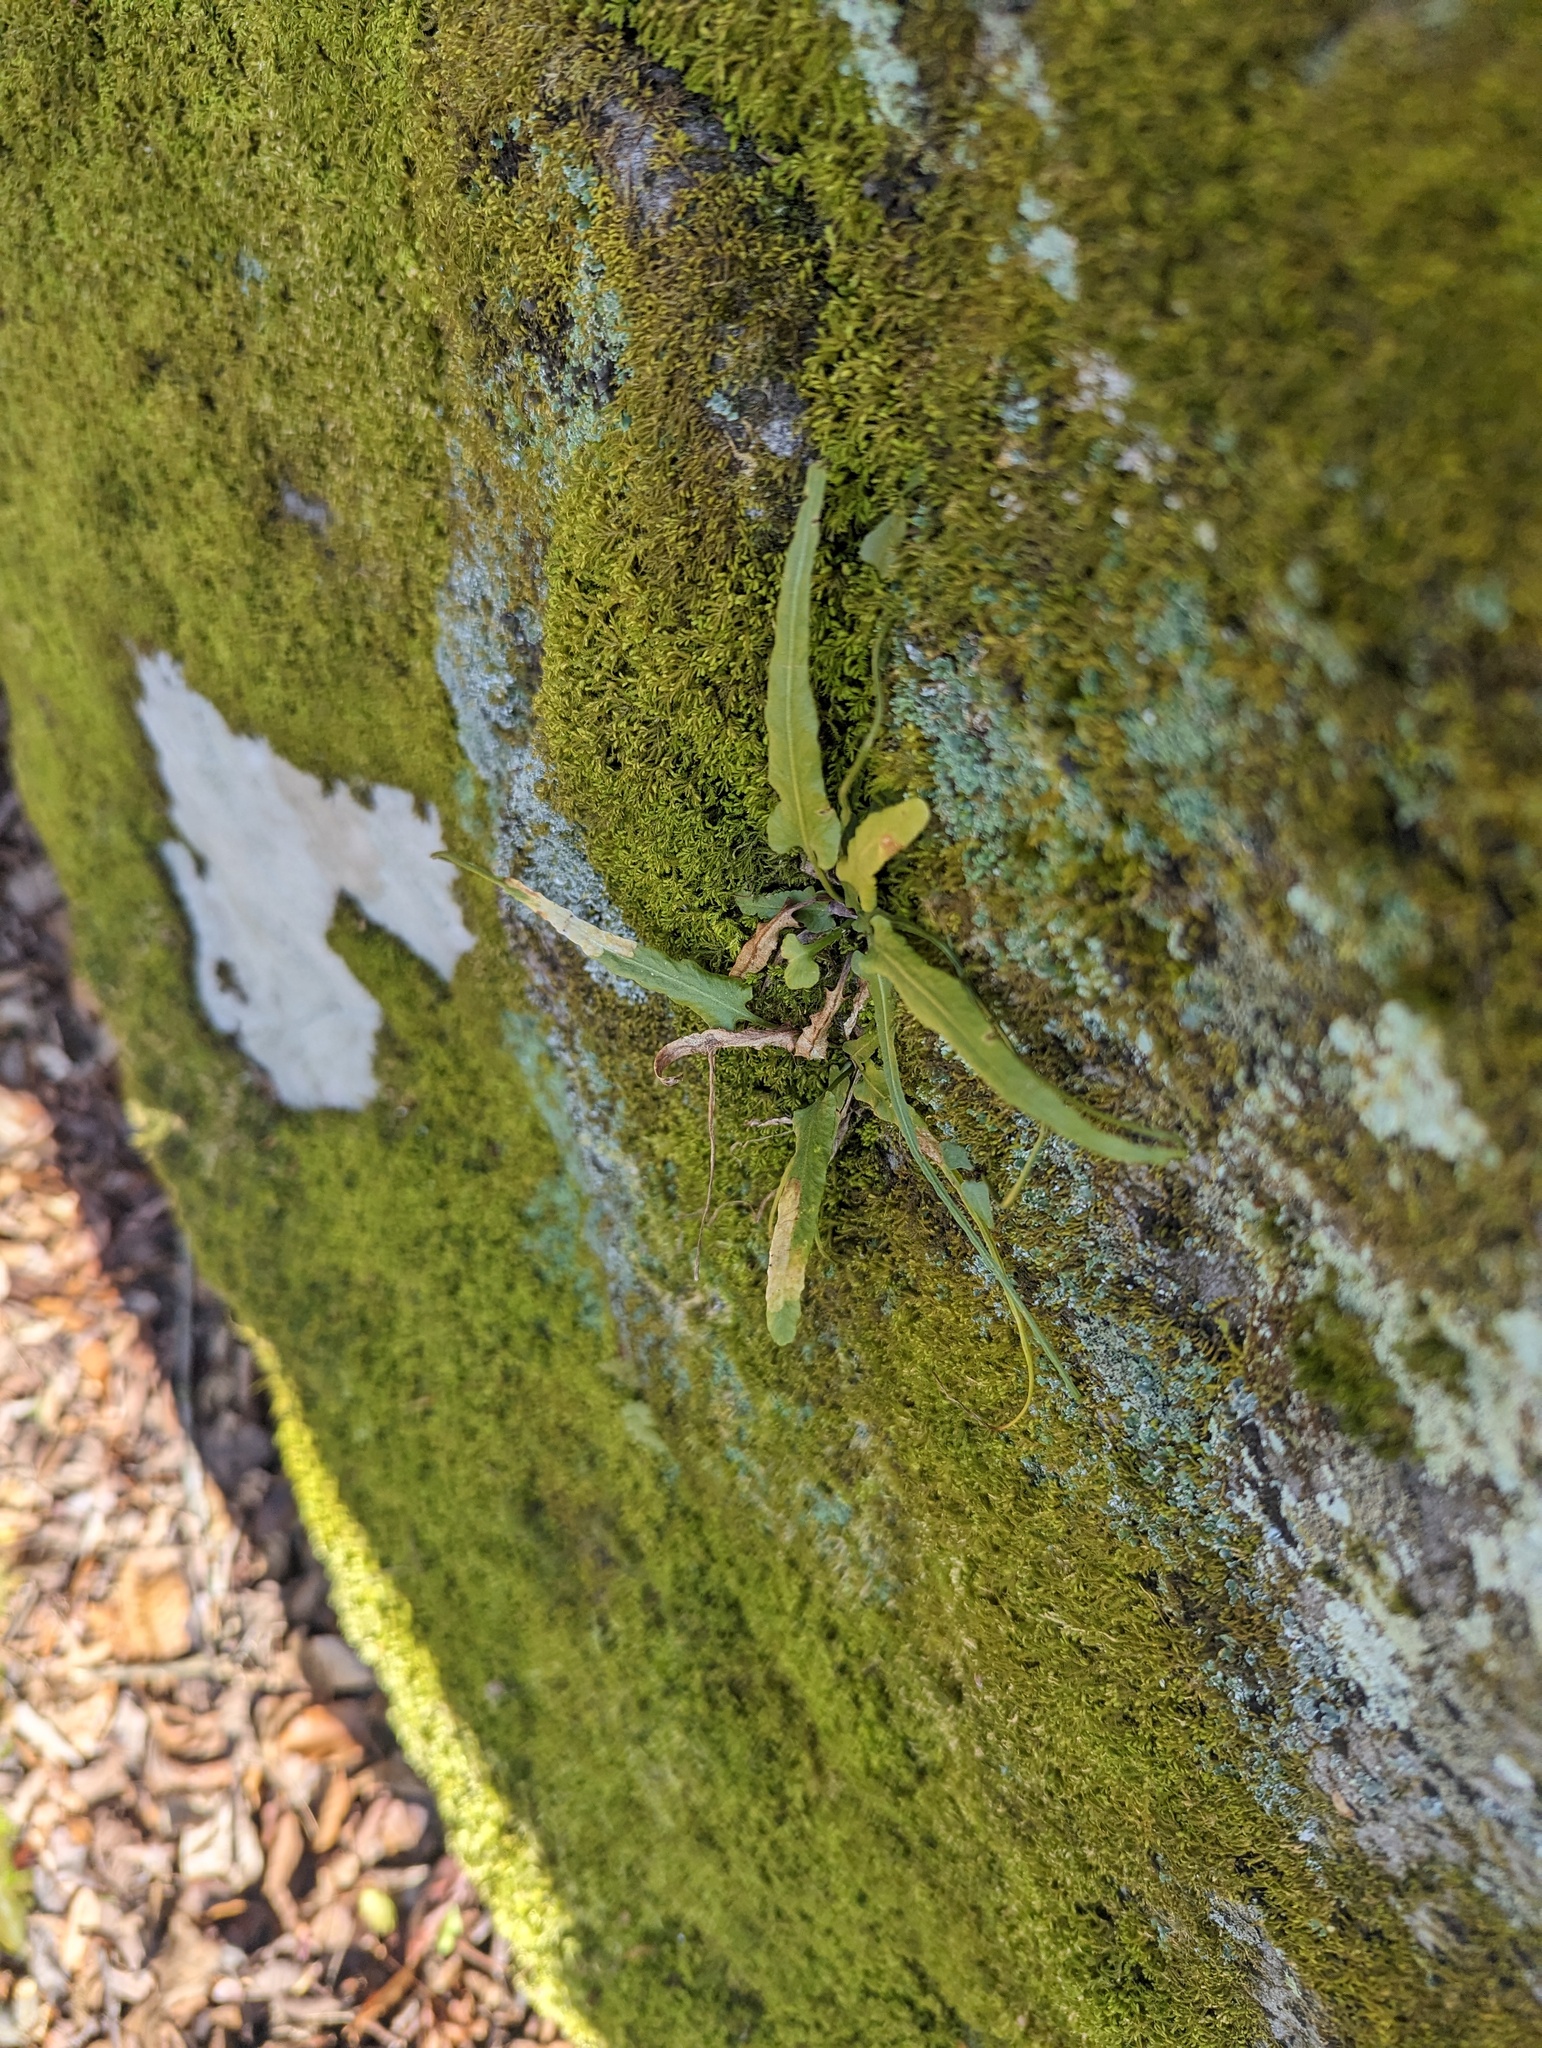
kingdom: Plantae
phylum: Tracheophyta
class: Polypodiopsida
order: Polypodiales
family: Aspleniaceae
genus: Asplenium
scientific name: Asplenium rhizophyllum
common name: Walking fern
